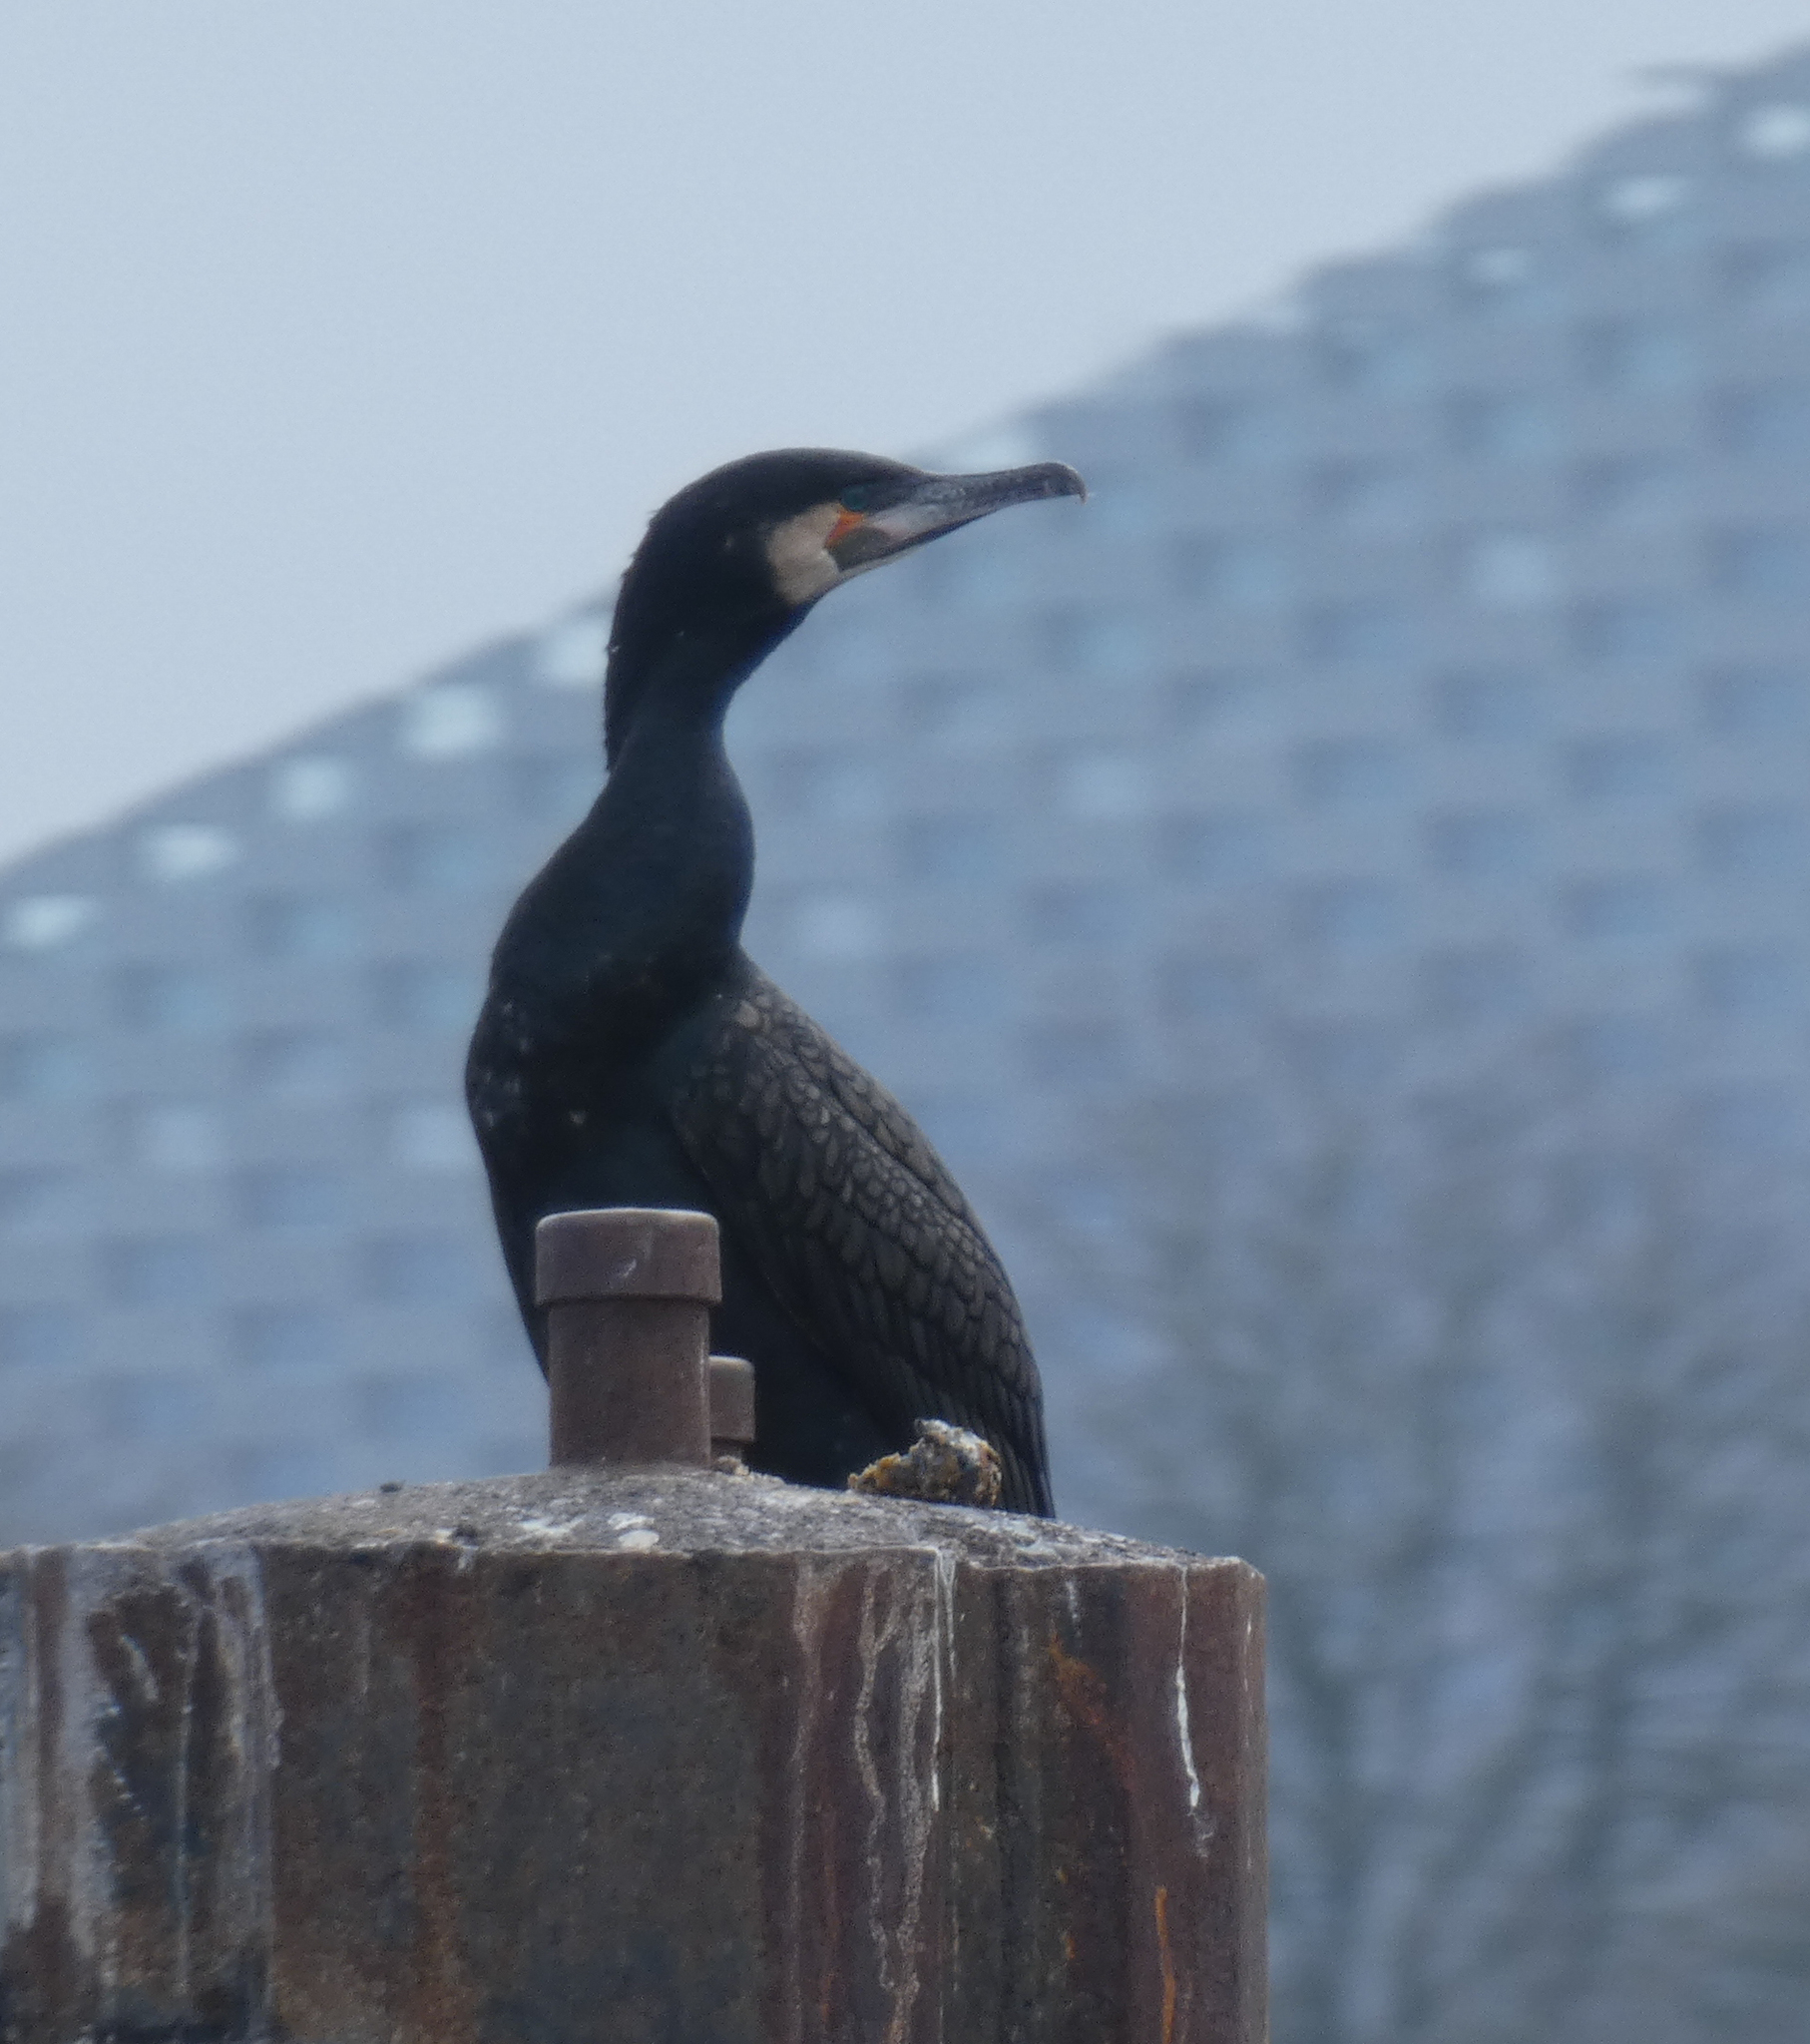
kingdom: Animalia
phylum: Chordata
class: Aves
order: Suliformes
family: Phalacrocoracidae
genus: Phalacrocorax
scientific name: Phalacrocorax carbo
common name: Great cormorant
